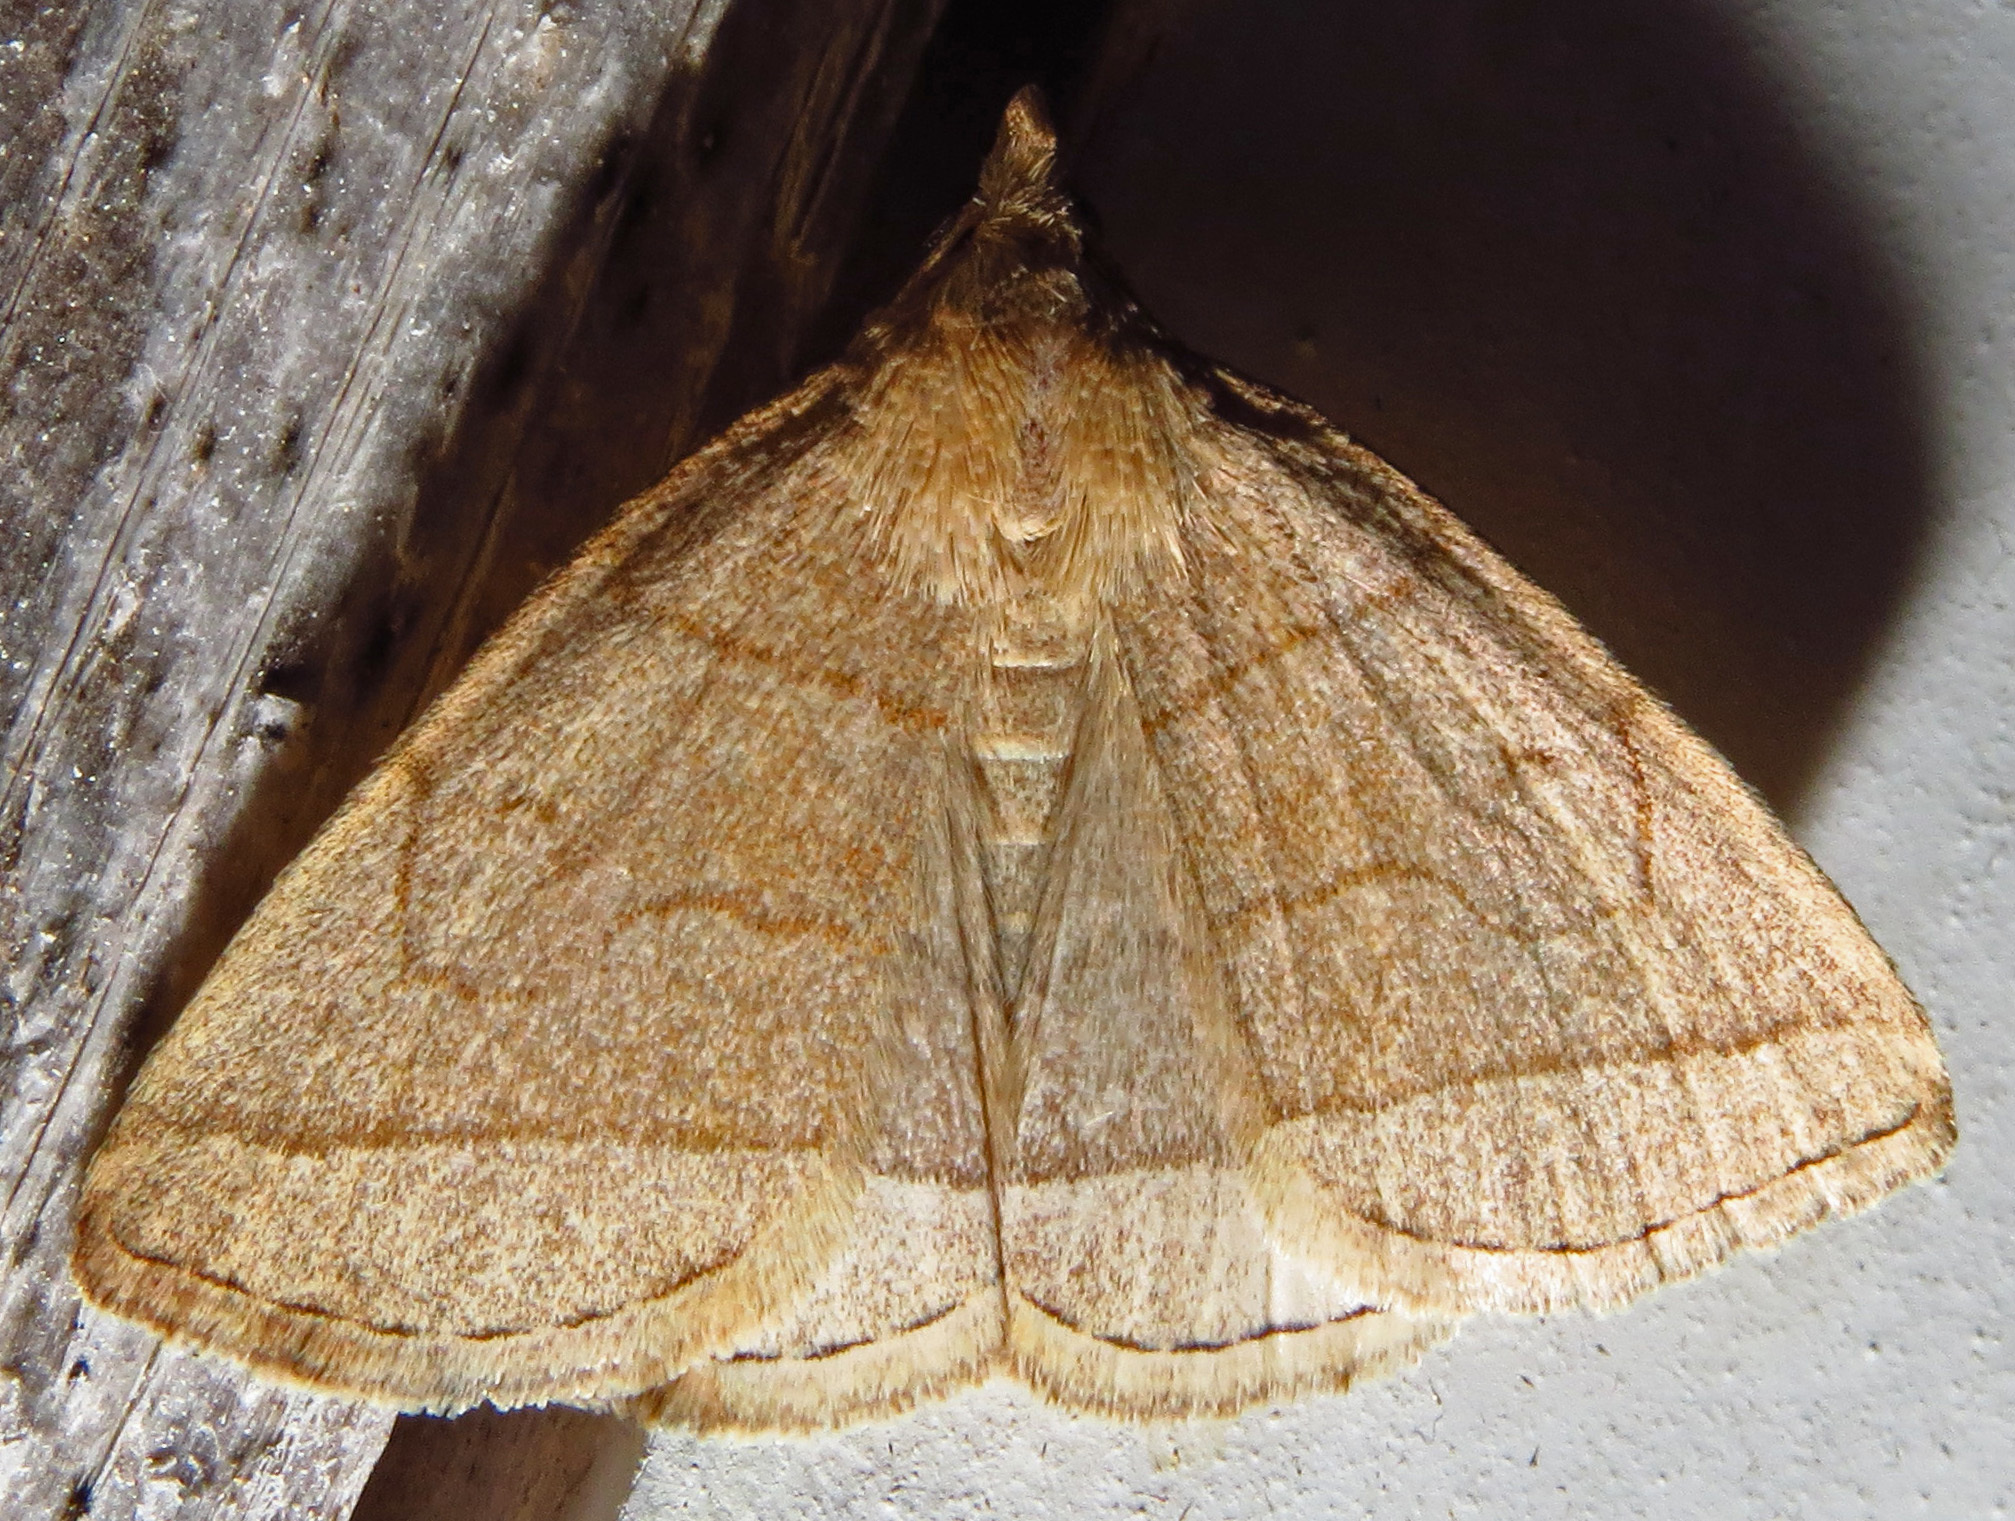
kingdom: Animalia
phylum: Arthropoda
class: Insecta
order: Lepidoptera
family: Erebidae
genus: Zanclognatha
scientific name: Zanclognatha cruralis
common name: Early fan-foot
